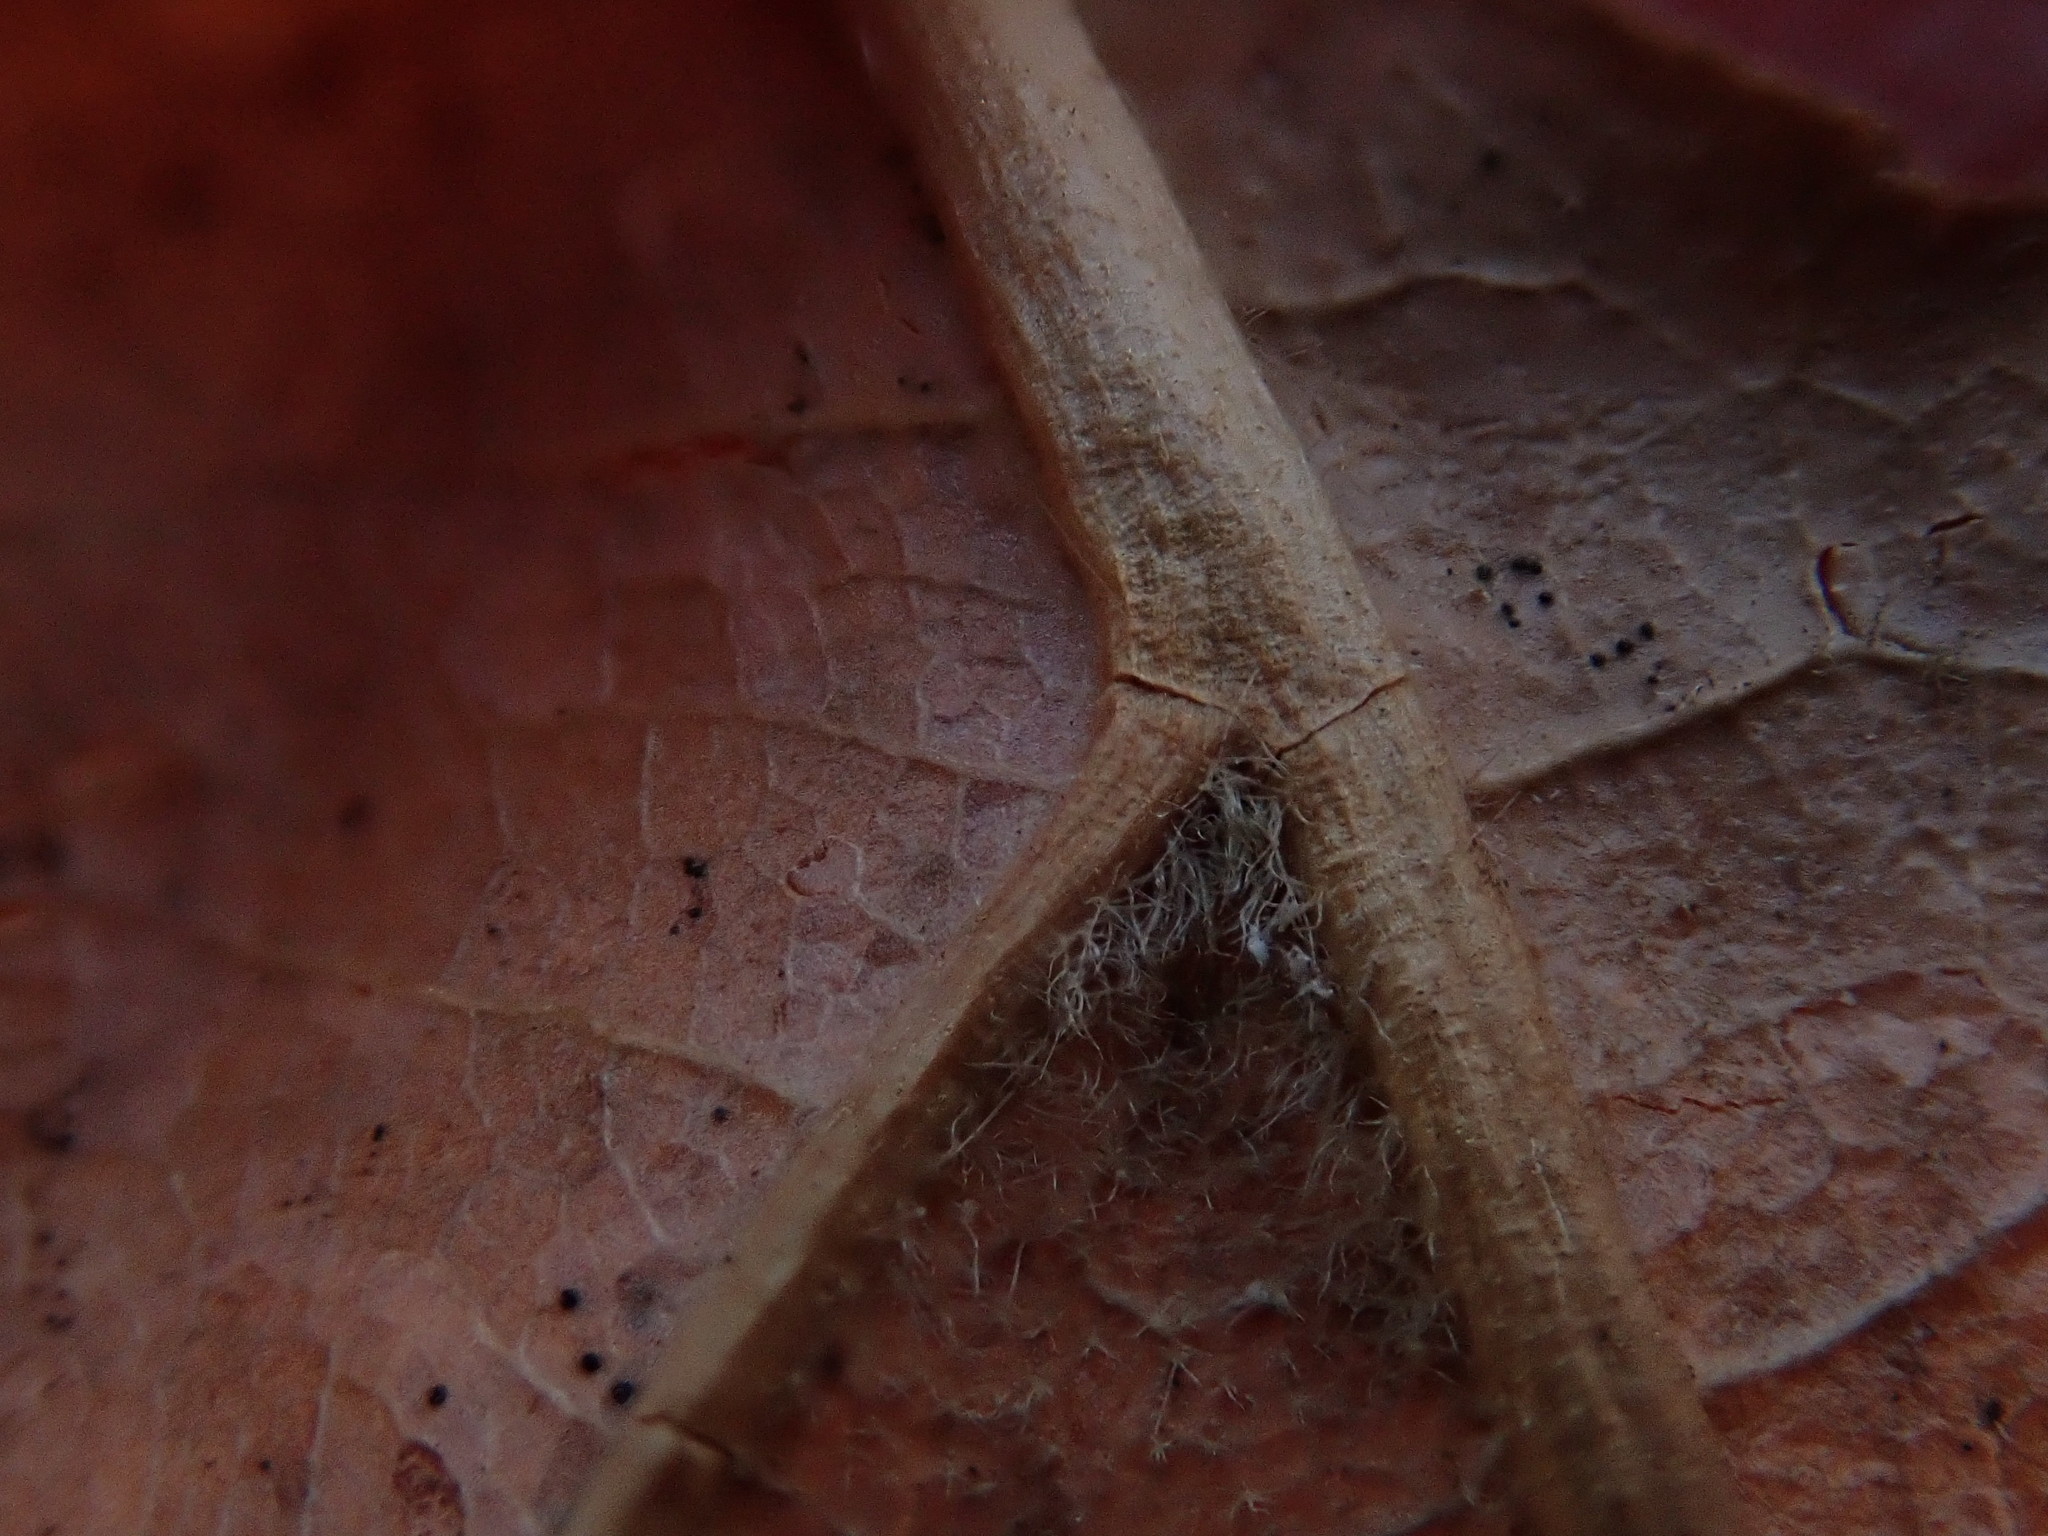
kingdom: Plantae
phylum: Tracheophyta
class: Magnoliopsida
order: Fagales
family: Fagaceae
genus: Quercus
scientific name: Quercus velutina
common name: Black oak
